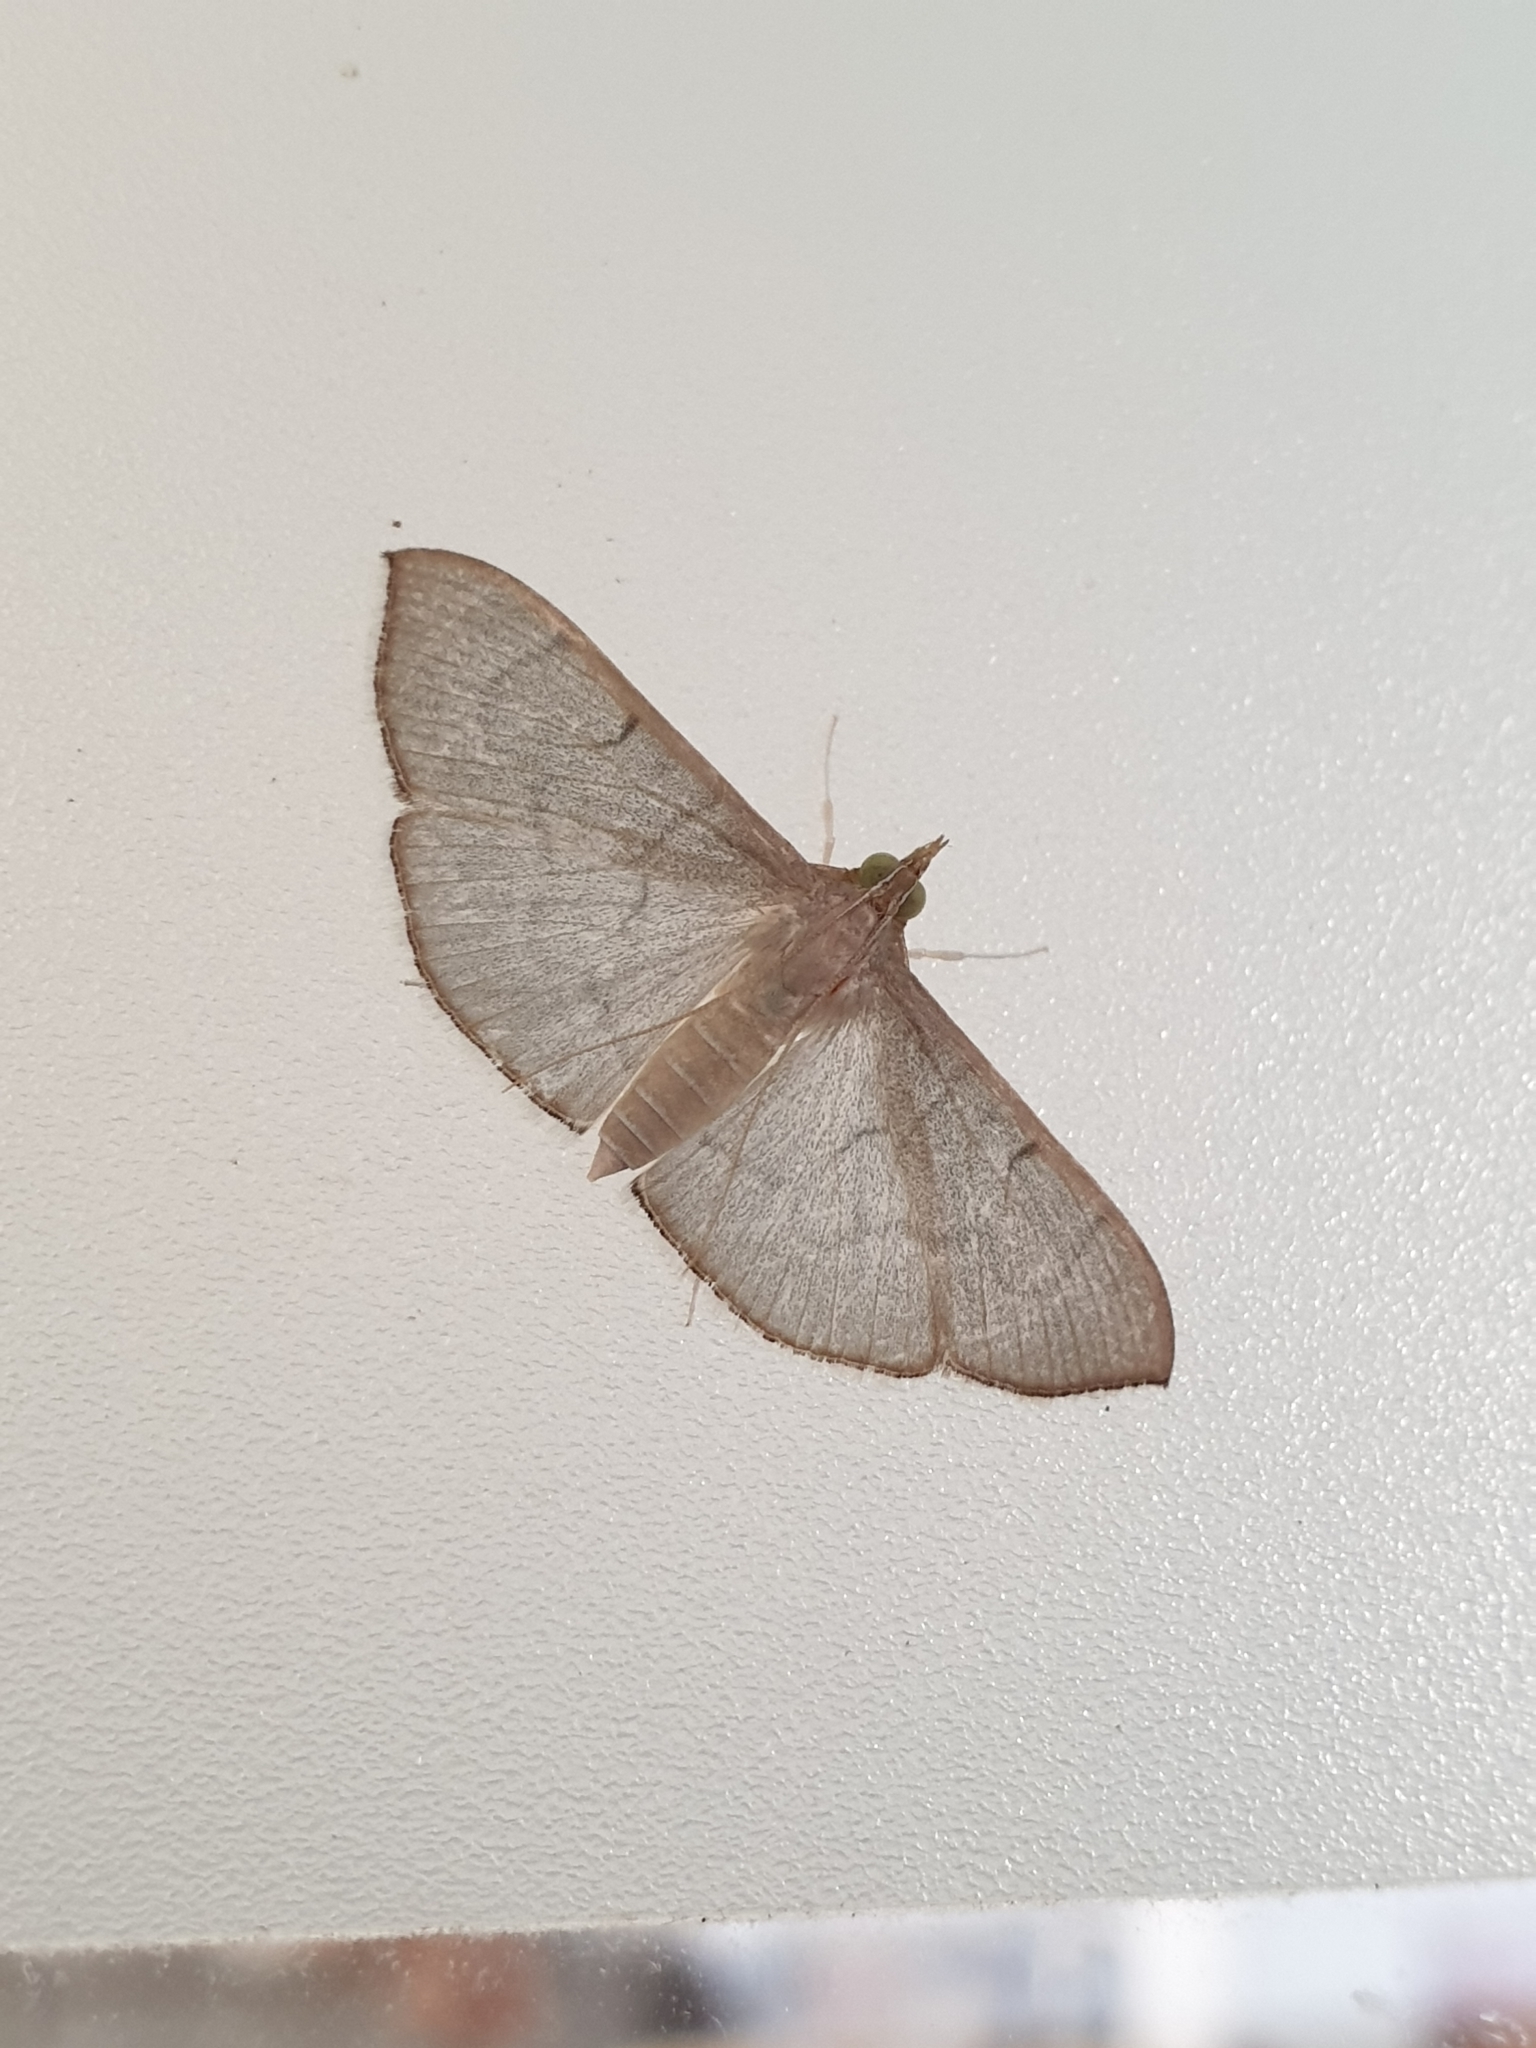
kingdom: Animalia
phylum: Arthropoda
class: Insecta
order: Lepidoptera
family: Crambidae
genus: Lamprophaia
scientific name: Lamprophaia ablactalis
